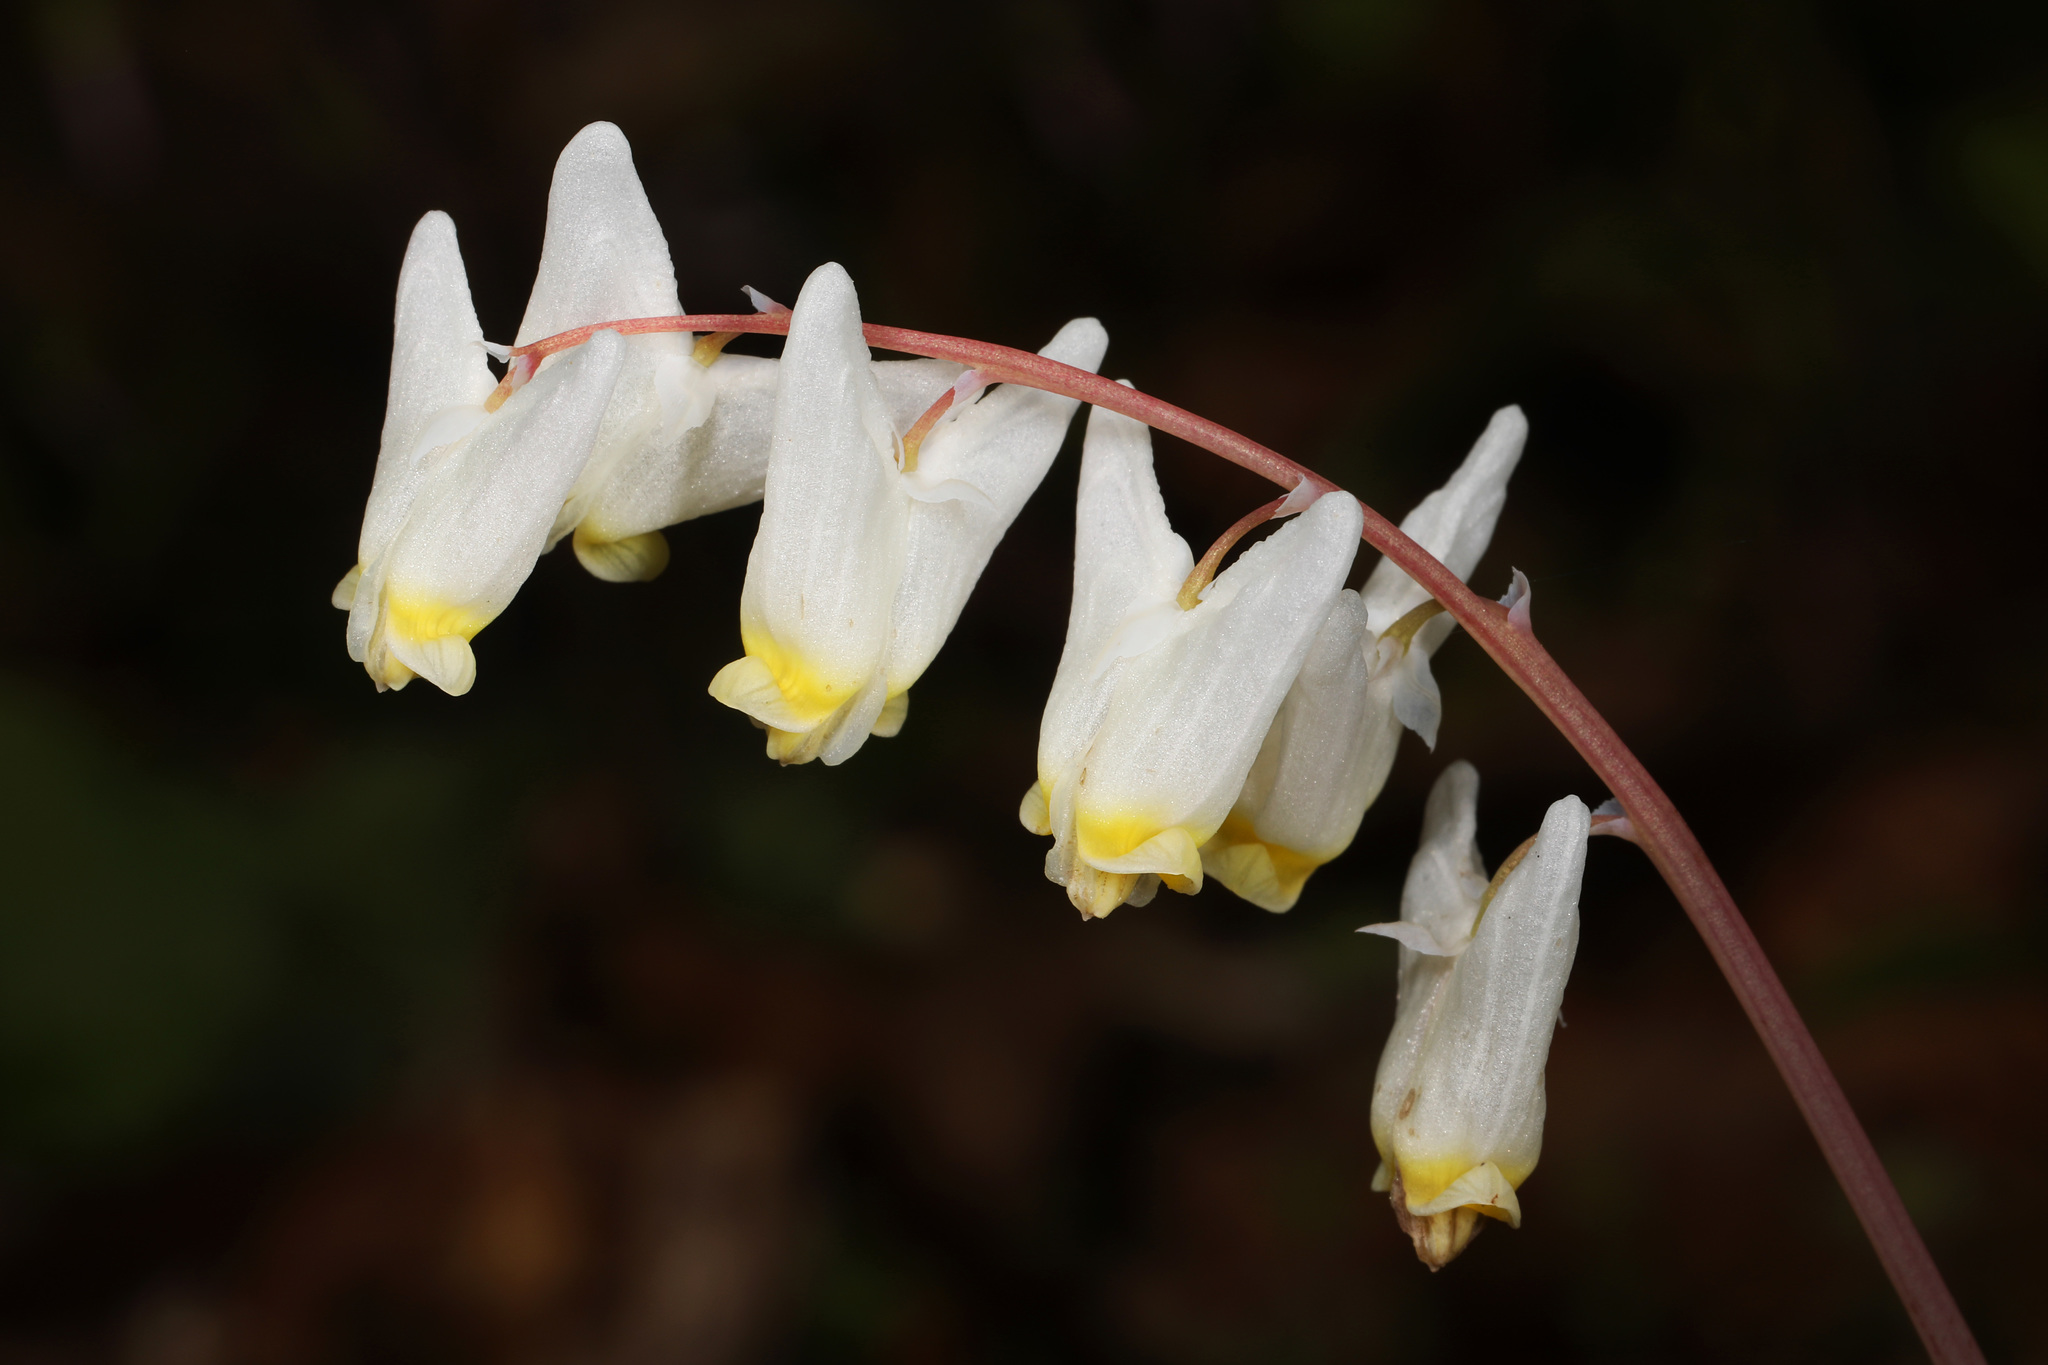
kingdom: Plantae
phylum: Tracheophyta
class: Magnoliopsida
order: Ranunculales
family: Papaveraceae
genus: Dicentra
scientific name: Dicentra cucullaria
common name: Dutchman's breeches
